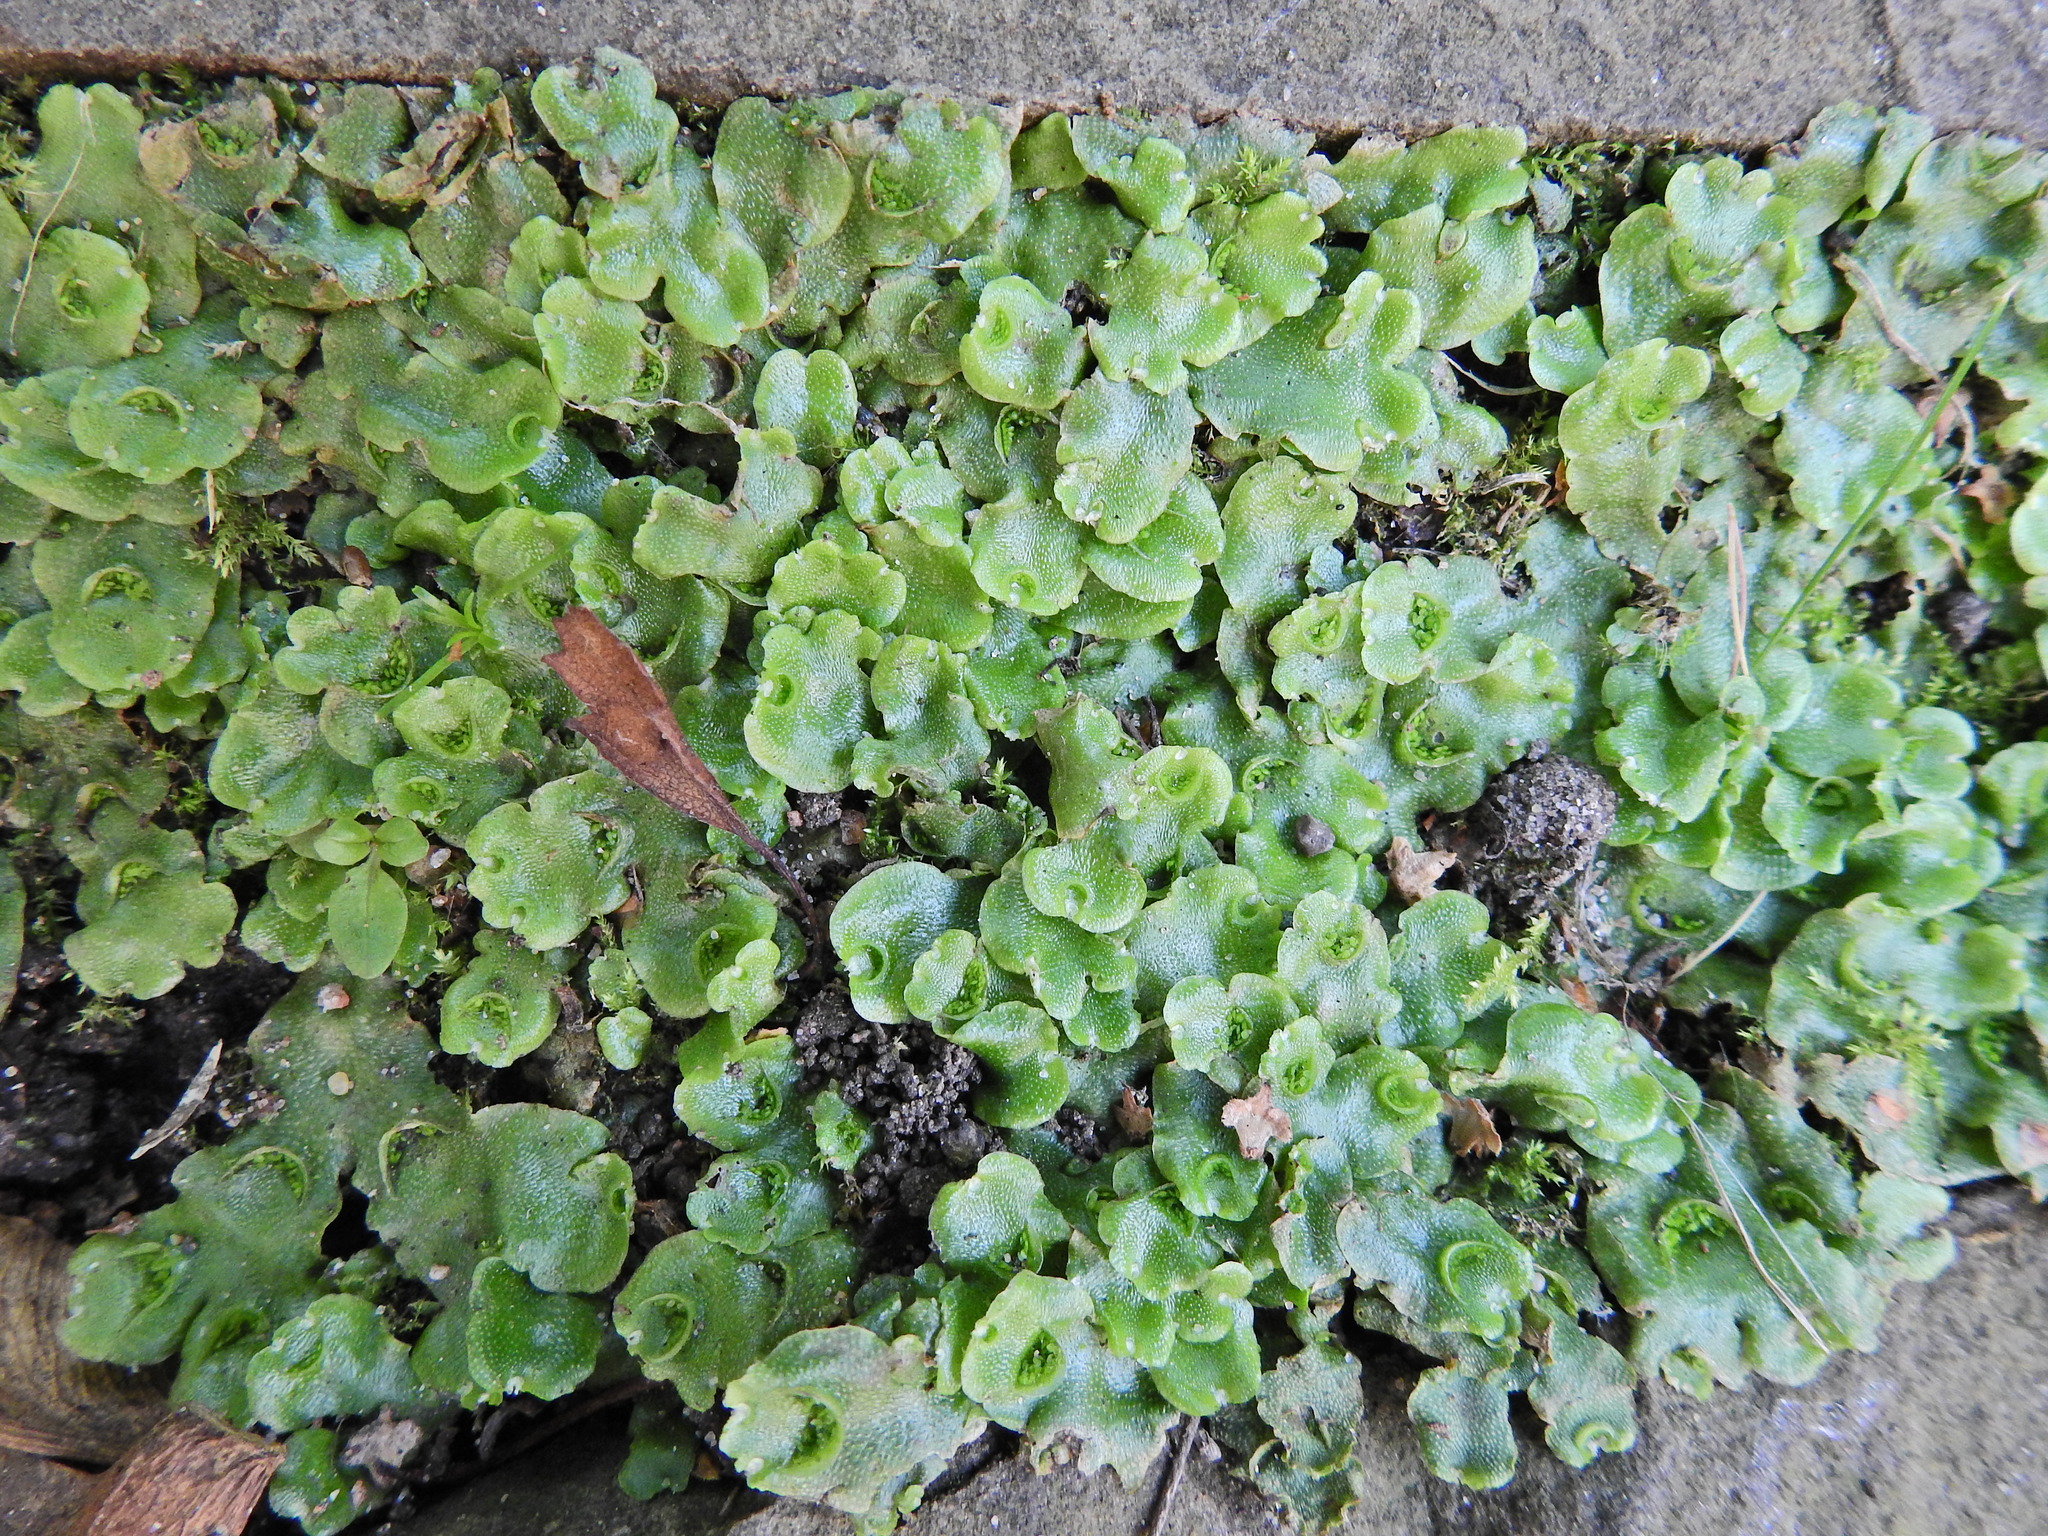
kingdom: Plantae
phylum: Marchantiophyta
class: Marchantiopsida
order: Lunulariales
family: Lunulariaceae
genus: Lunularia
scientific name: Lunularia cruciata
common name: Crescent-cup liverwort
